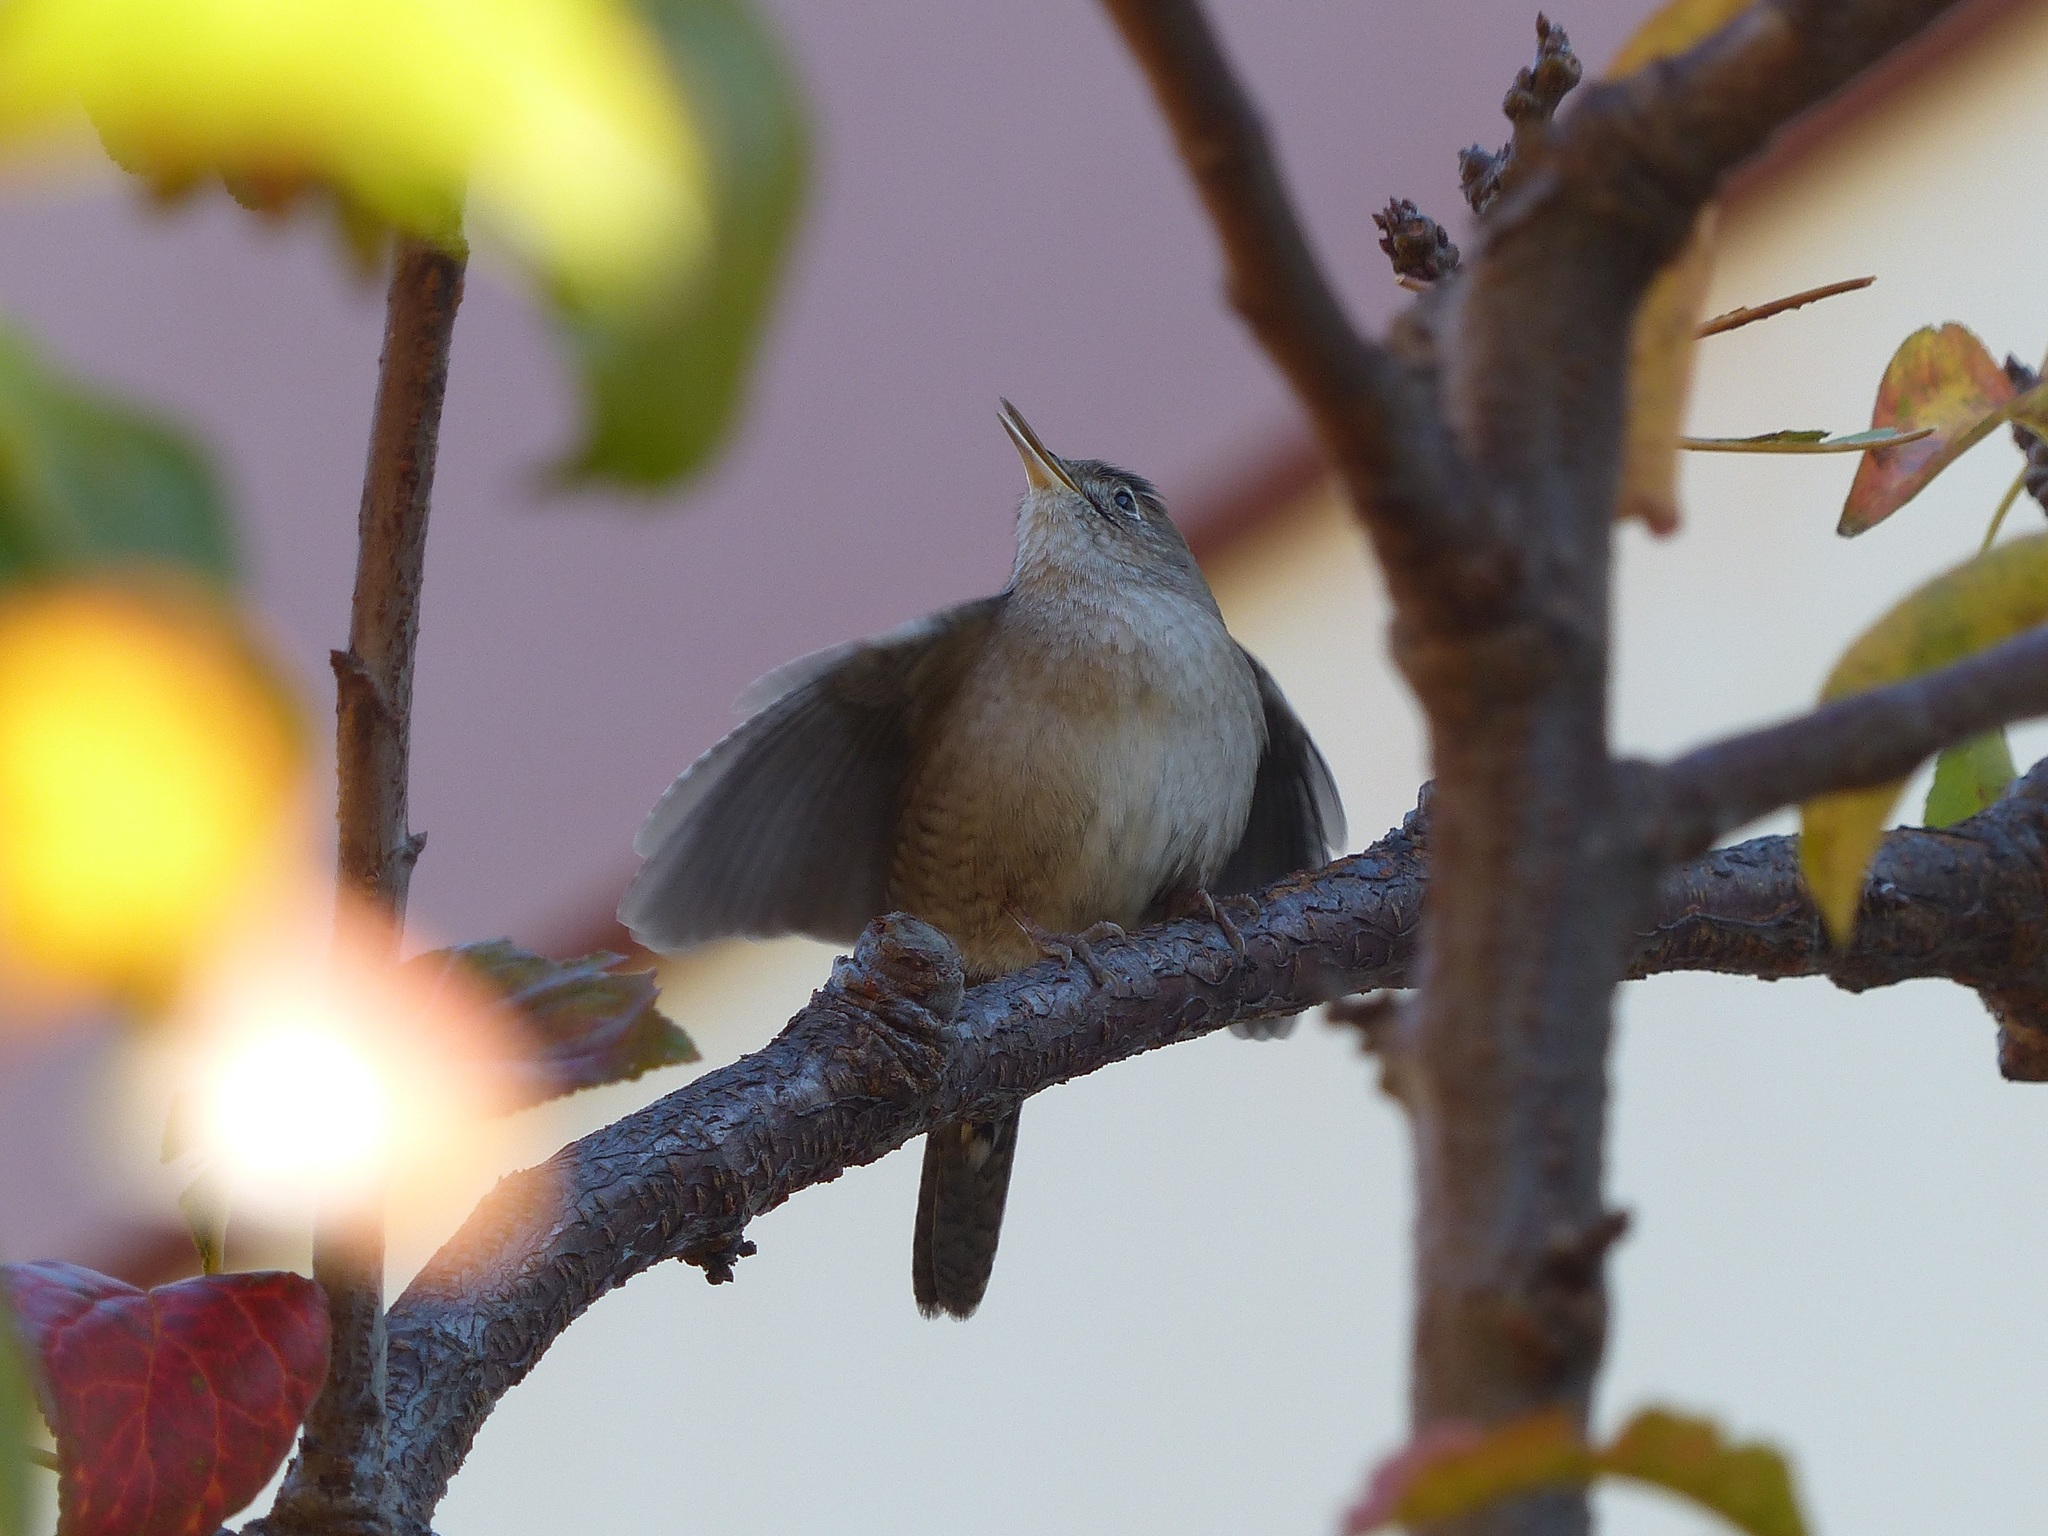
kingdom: Animalia
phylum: Chordata
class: Aves
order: Passeriformes
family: Troglodytidae
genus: Troglodytes
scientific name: Troglodytes aedon
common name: House wren
